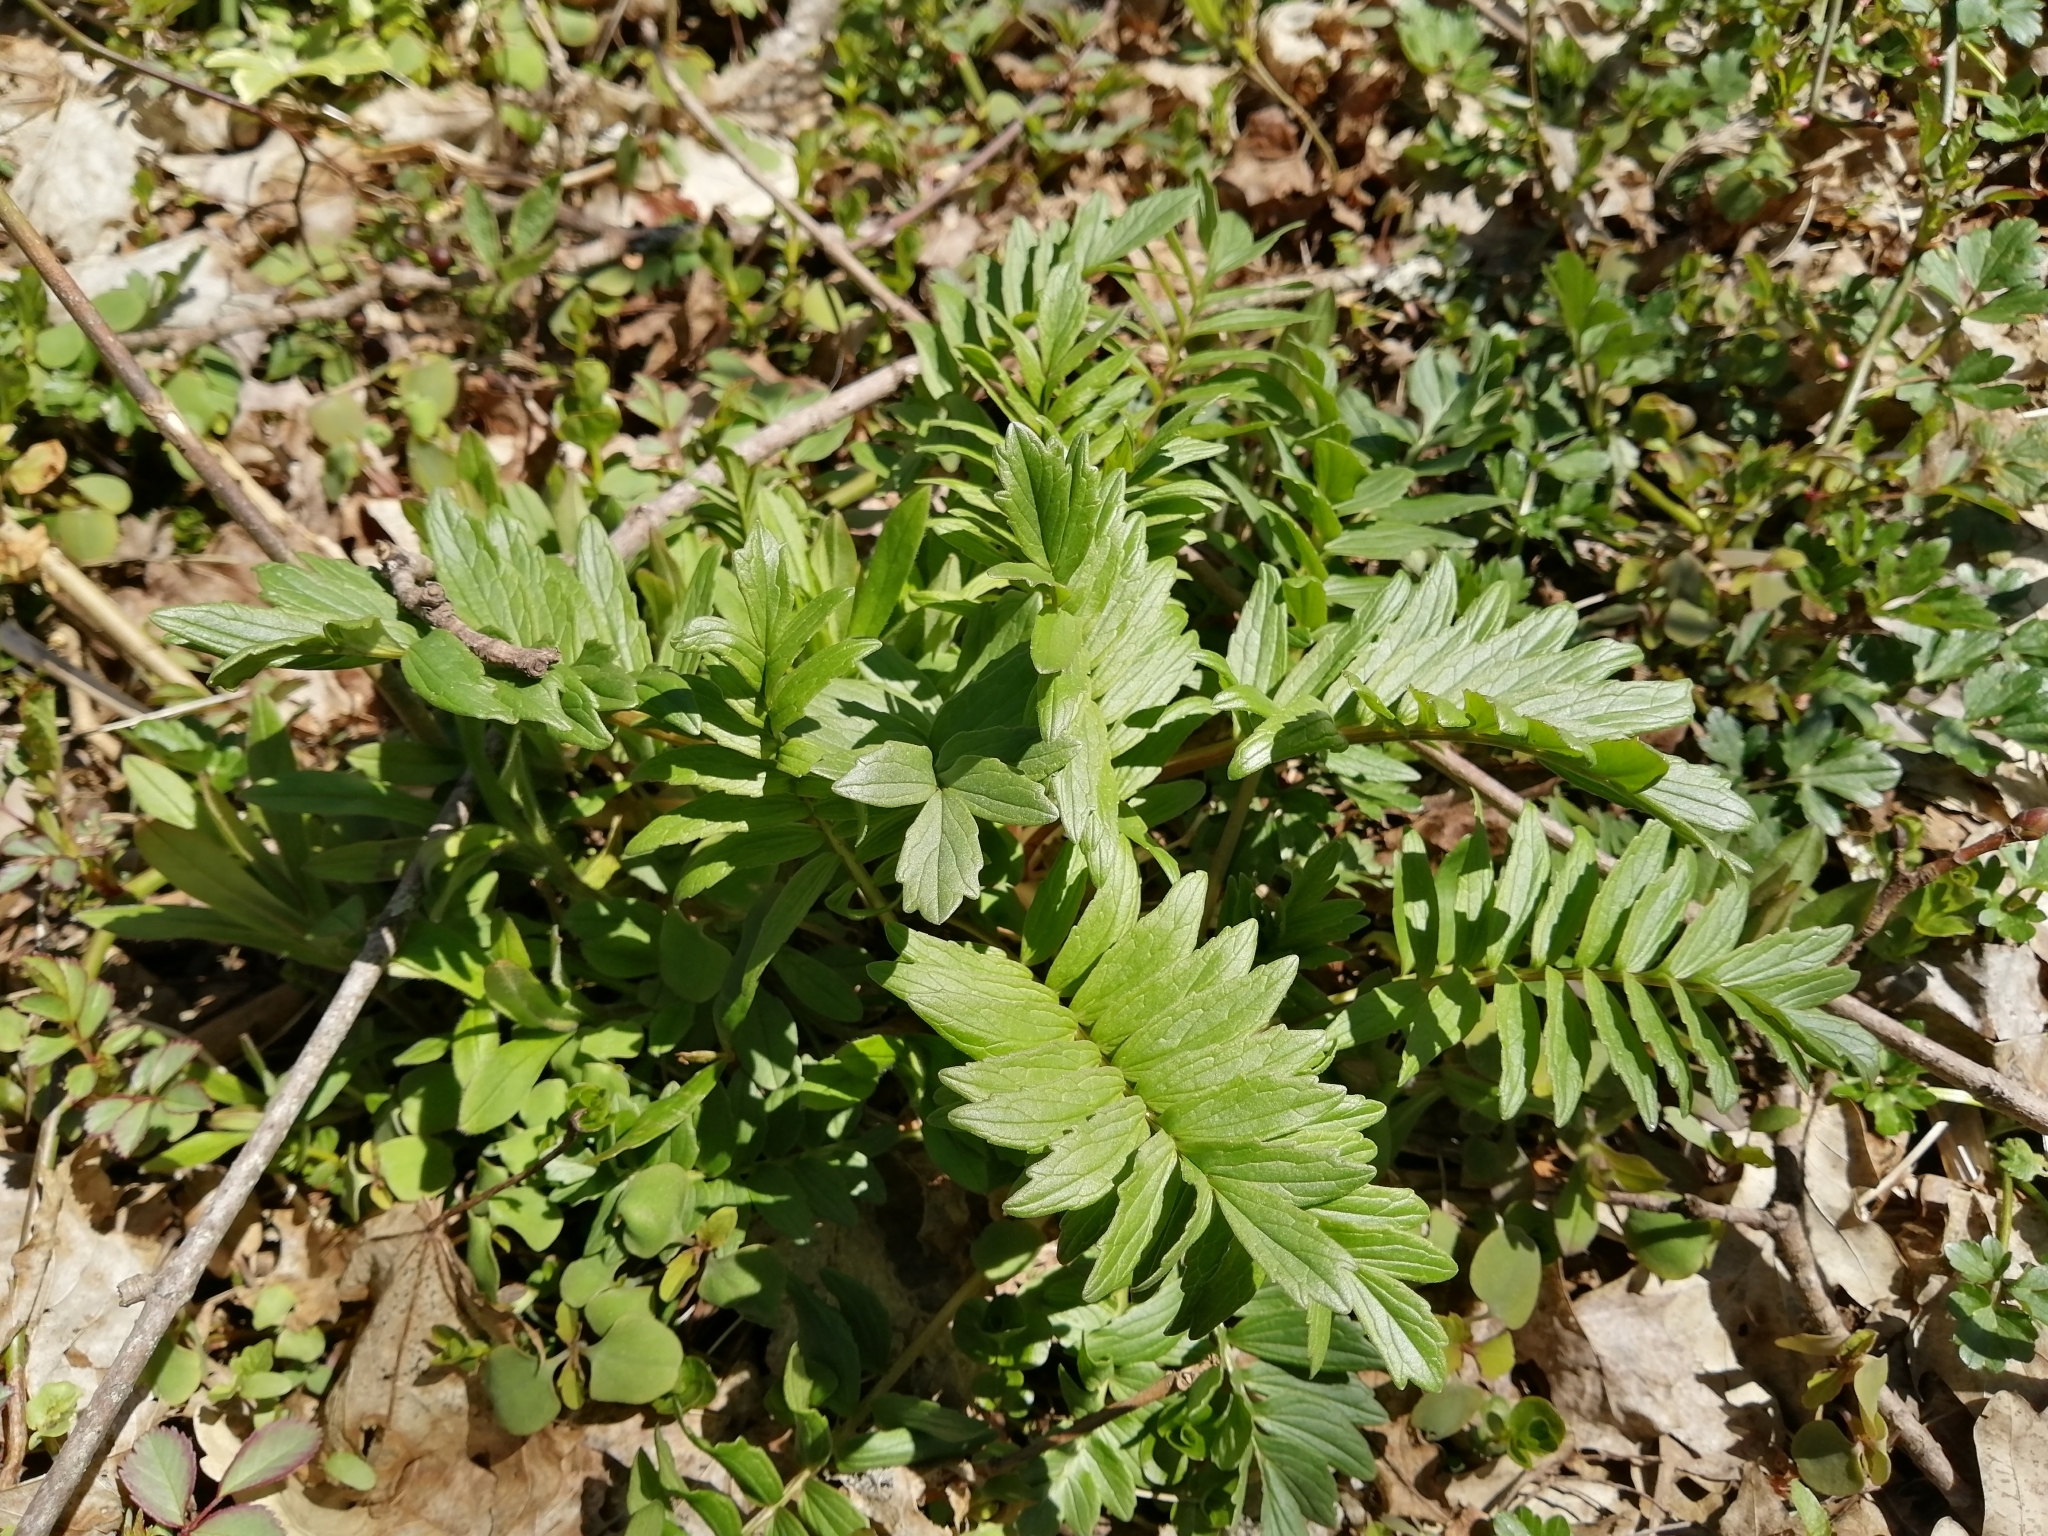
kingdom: Plantae
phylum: Tracheophyta
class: Magnoliopsida
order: Dipsacales
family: Caprifoliaceae
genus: Valeriana
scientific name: Valeriana officinalis
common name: Common valerian
